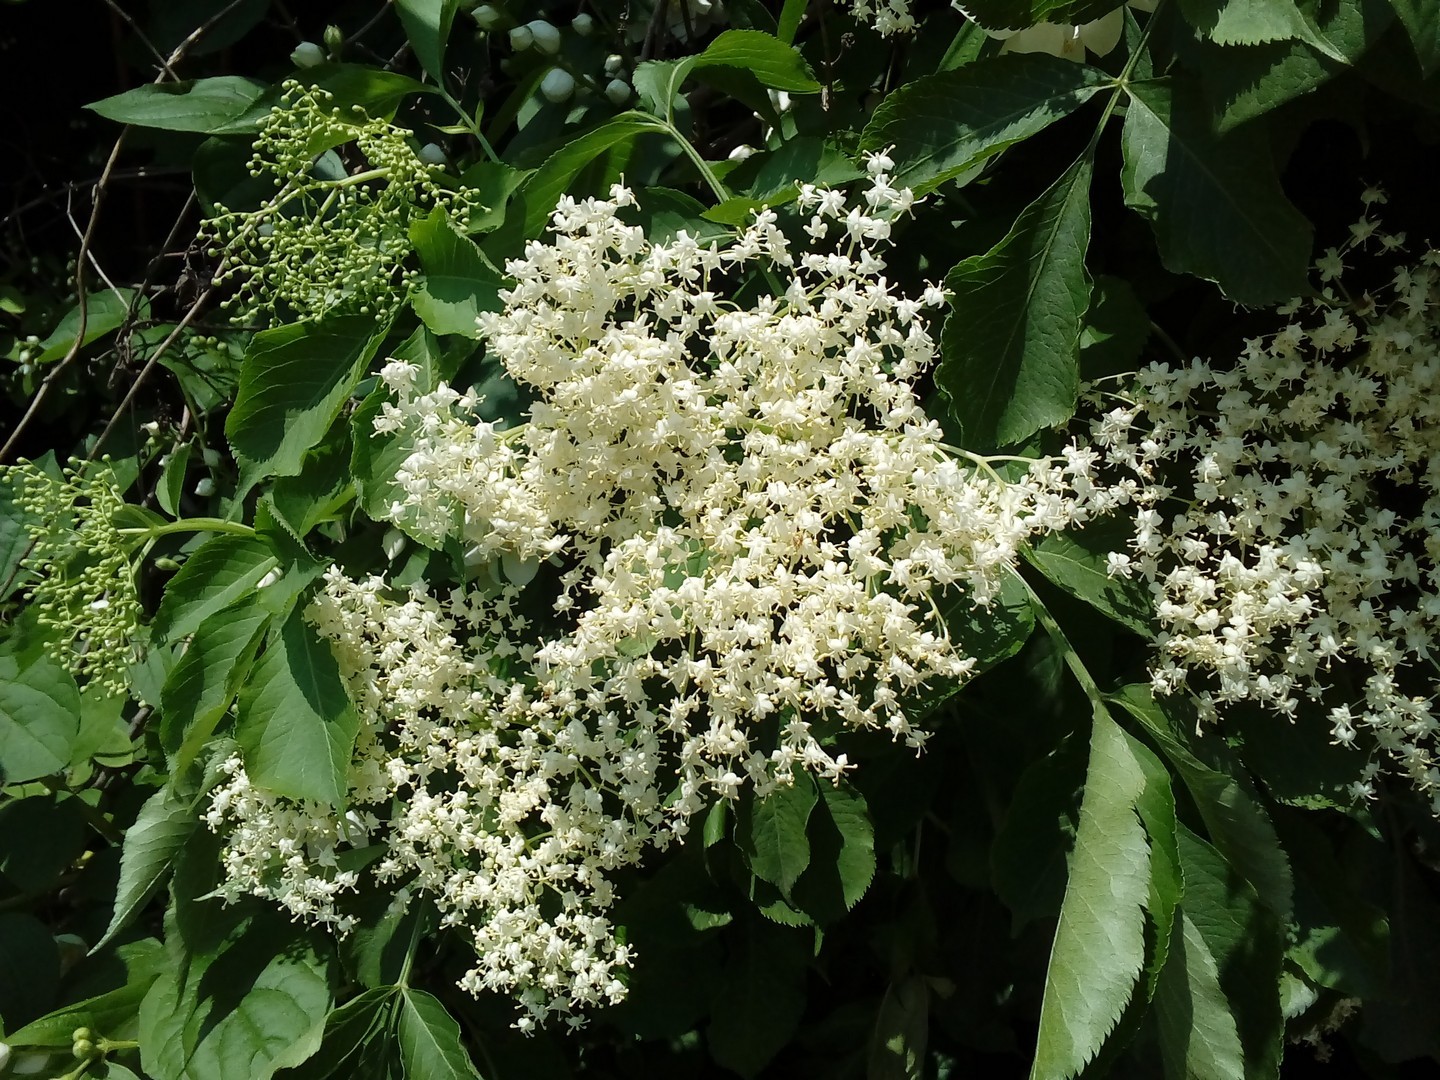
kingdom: Plantae
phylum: Tracheophyta
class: Magnoliopsida
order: Dipsacales
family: Viburnaceae
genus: Sambucus
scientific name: Sambucus nigra
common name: Elder
